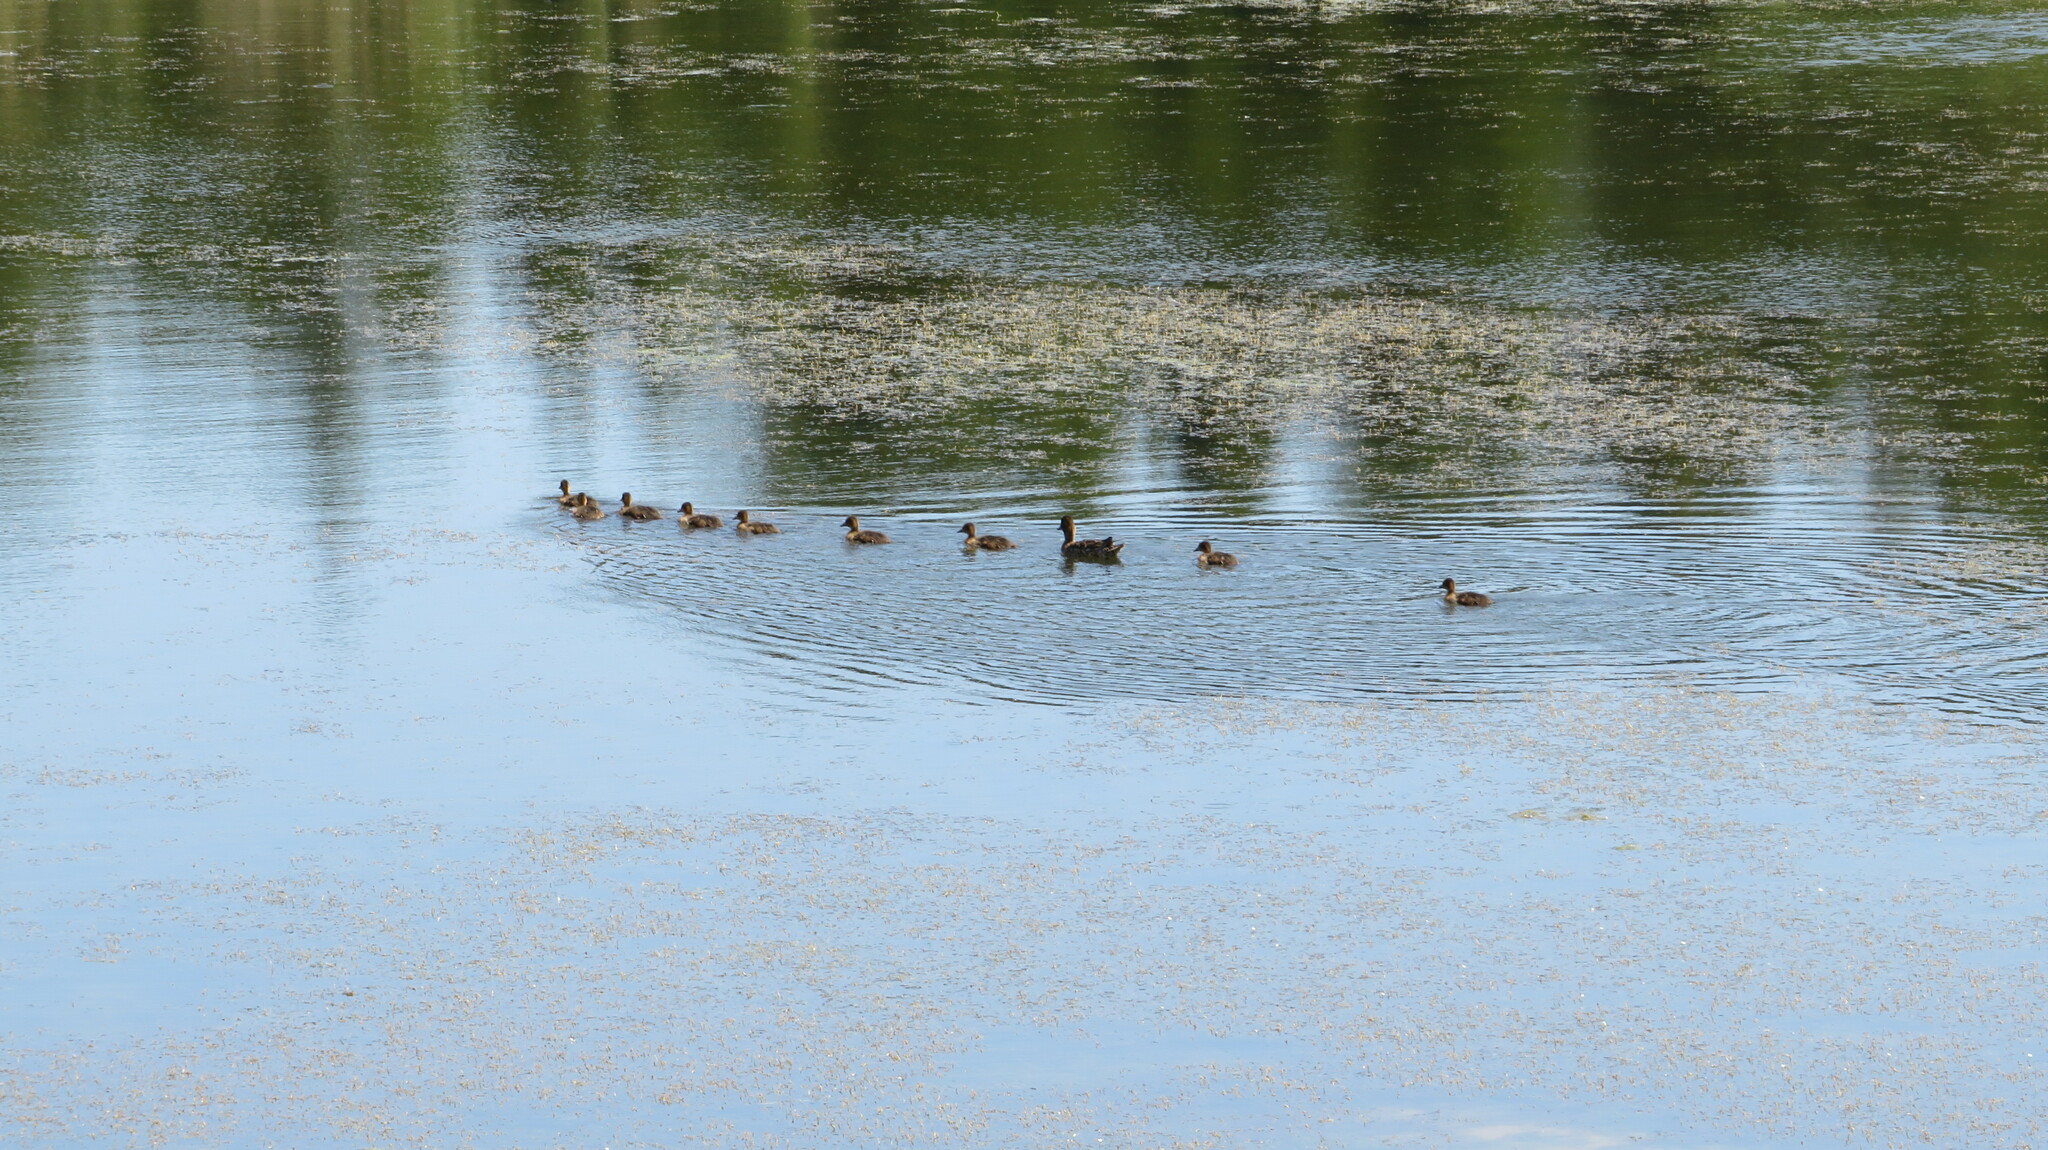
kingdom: Animalia
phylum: Chordata
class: Aves
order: Anseriformes
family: Anatidae
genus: Mareca
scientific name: Mareca penelope
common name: Eurasian wigeon
